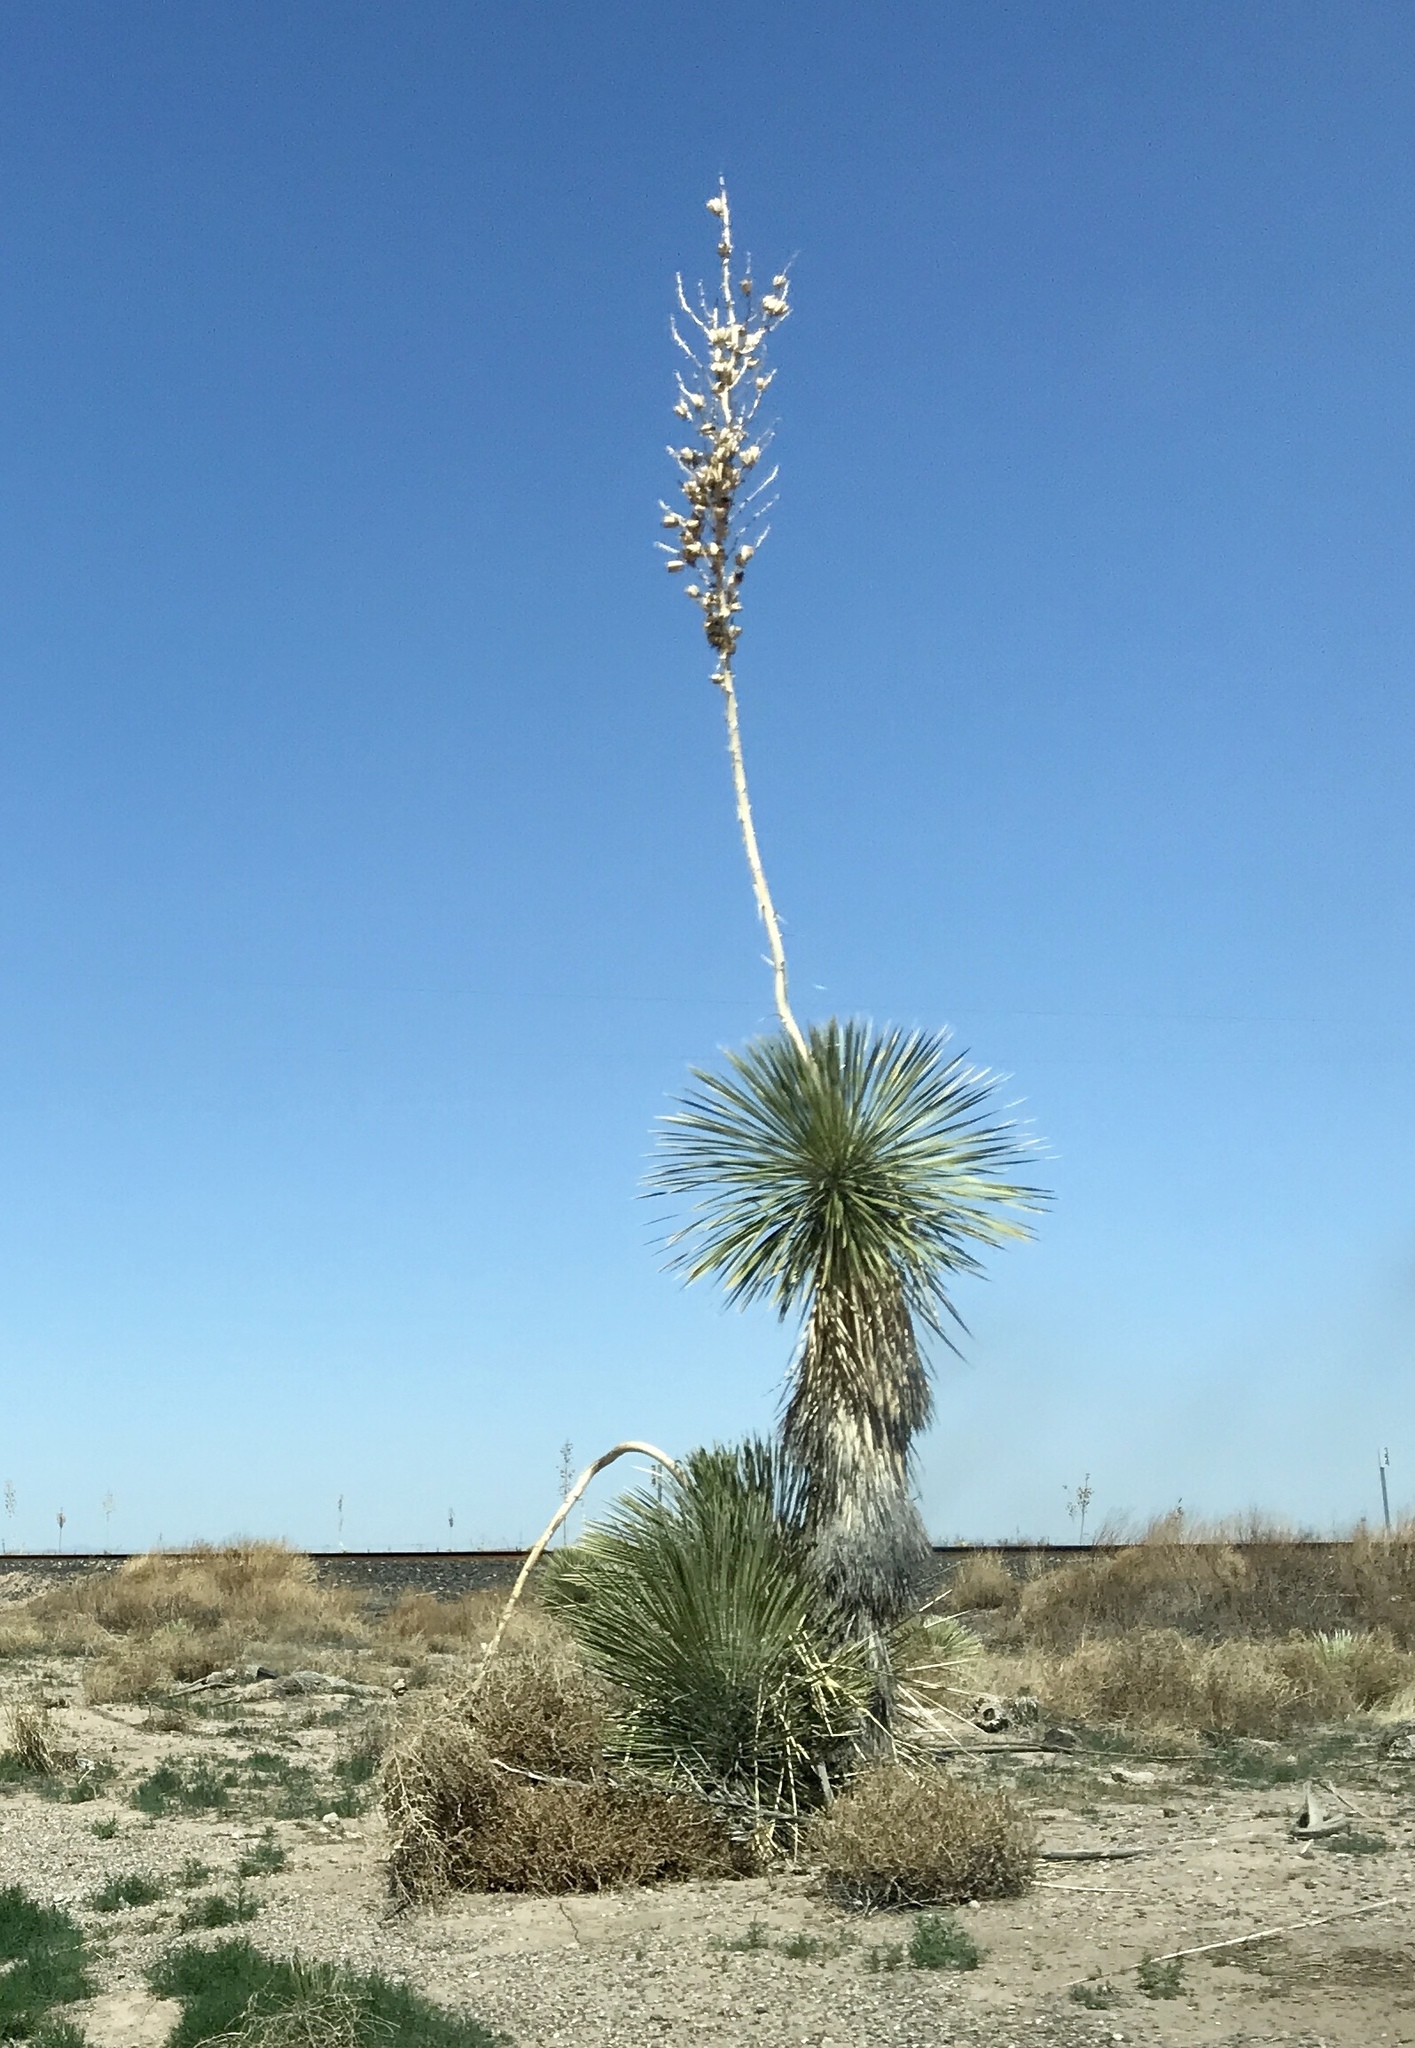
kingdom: Plantae
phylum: Tracheophyta
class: Liliopsida
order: Asparagales
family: Asparagaceae
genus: Yucca
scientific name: Yucca elata
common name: Palmella
